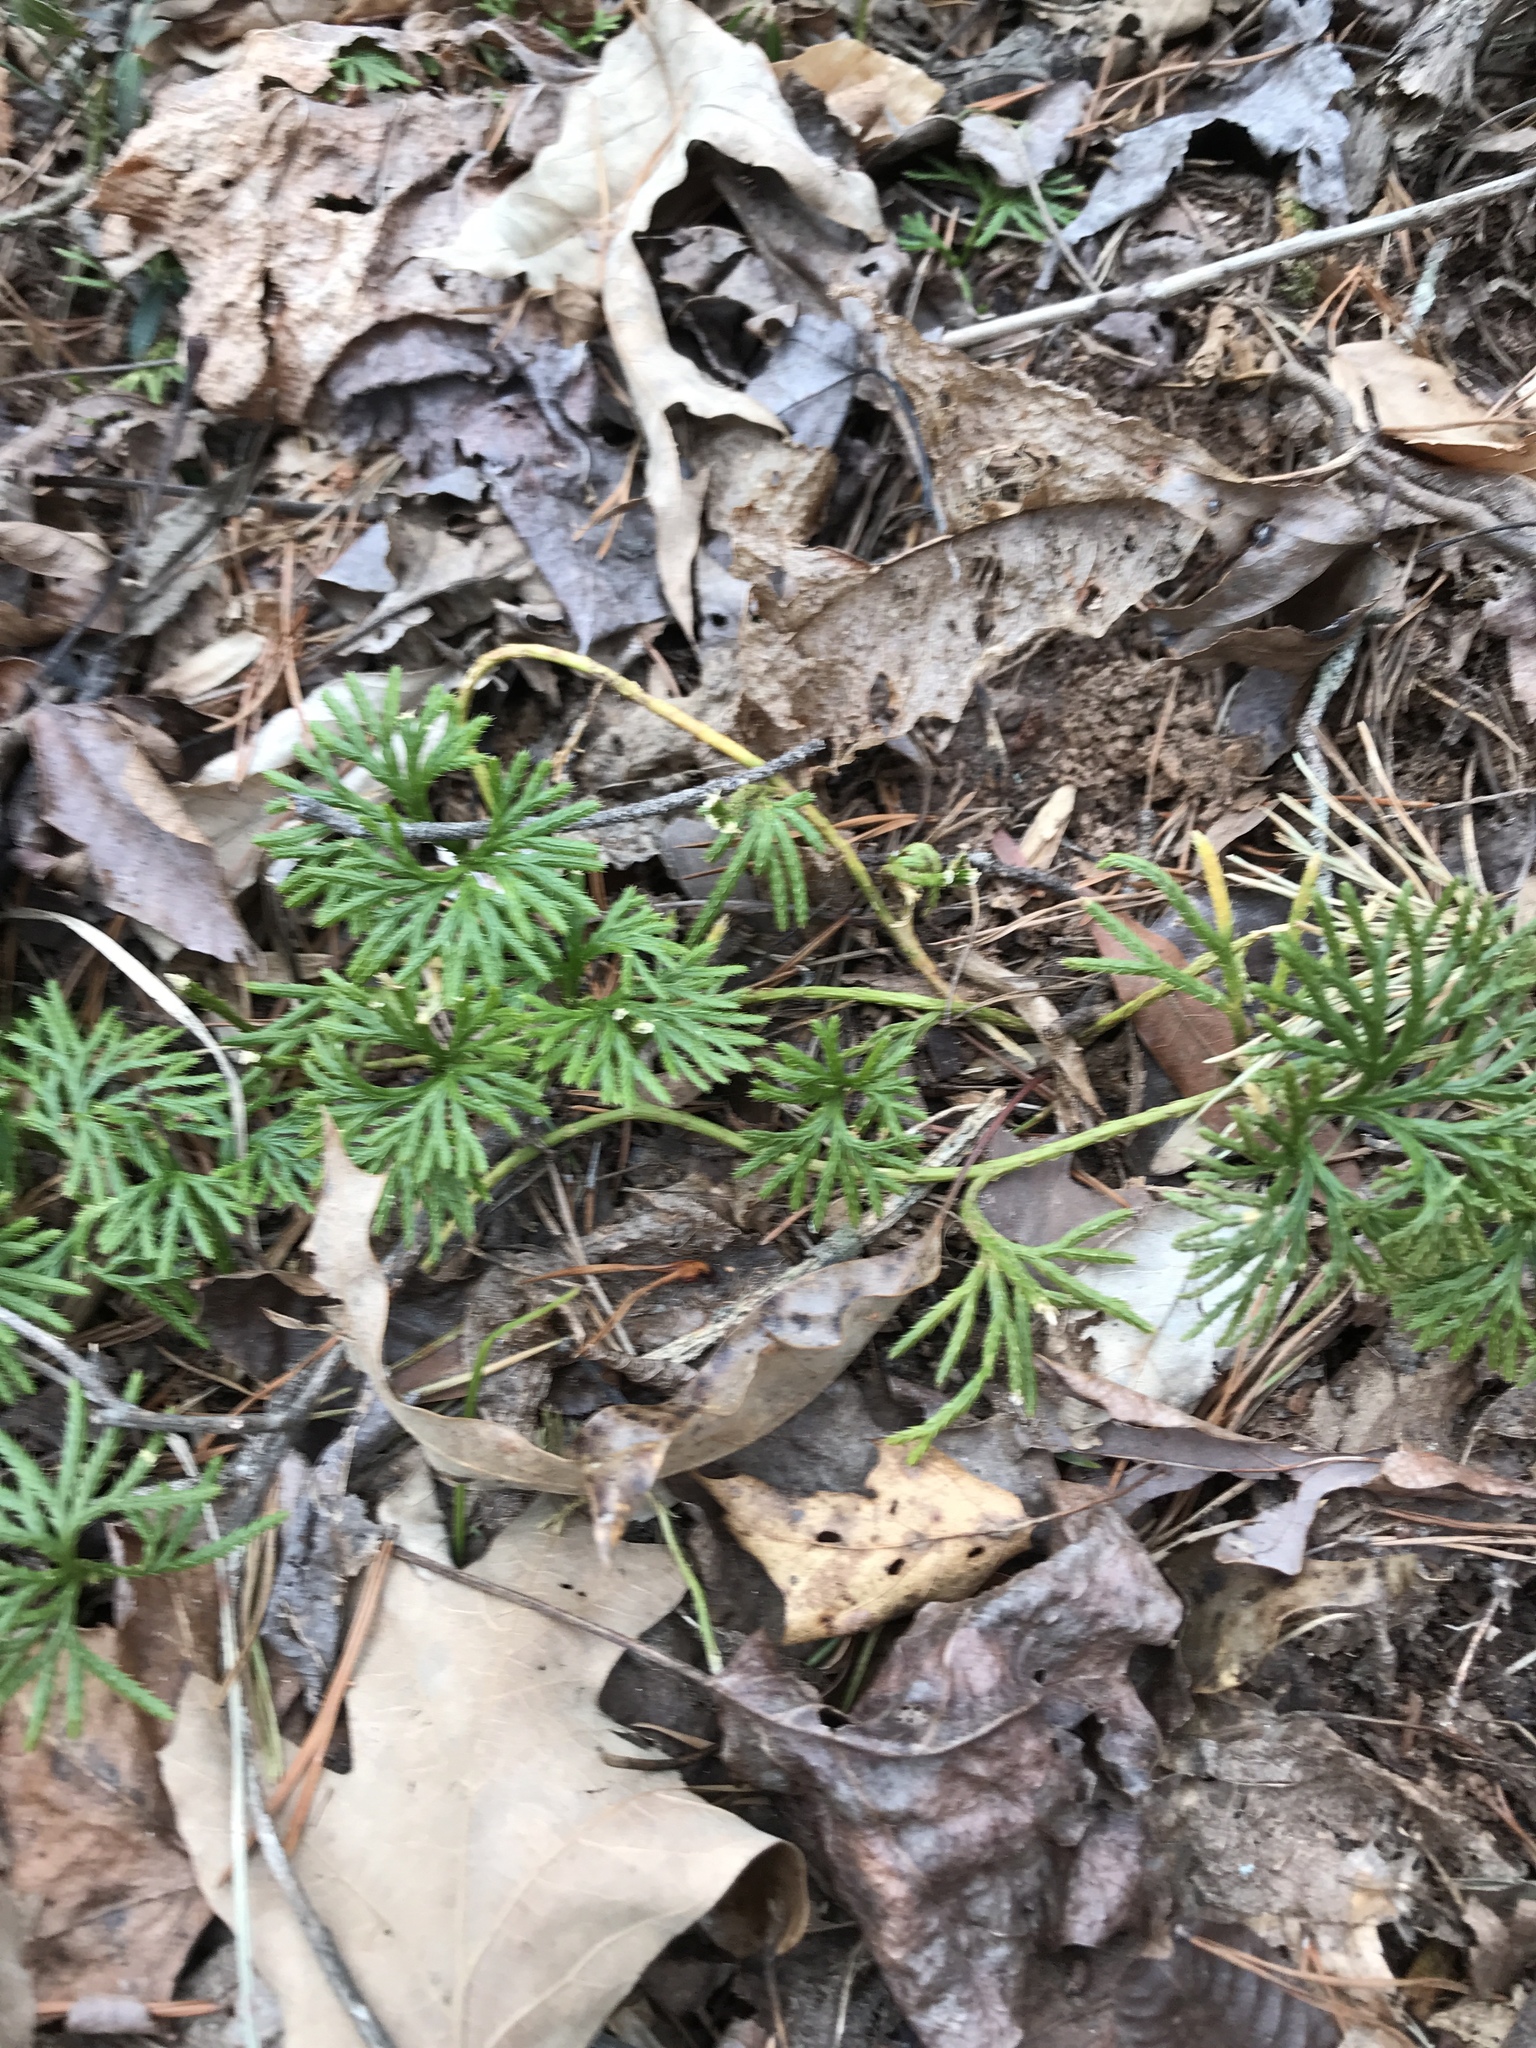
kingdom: Plantae
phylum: Tracheophyta
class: Lycopodiopsida
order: Lycopodiales
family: Lycopodiaceae
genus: Diphasiastrum
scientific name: Diphasiastrum digitatum
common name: Southern running-pine
